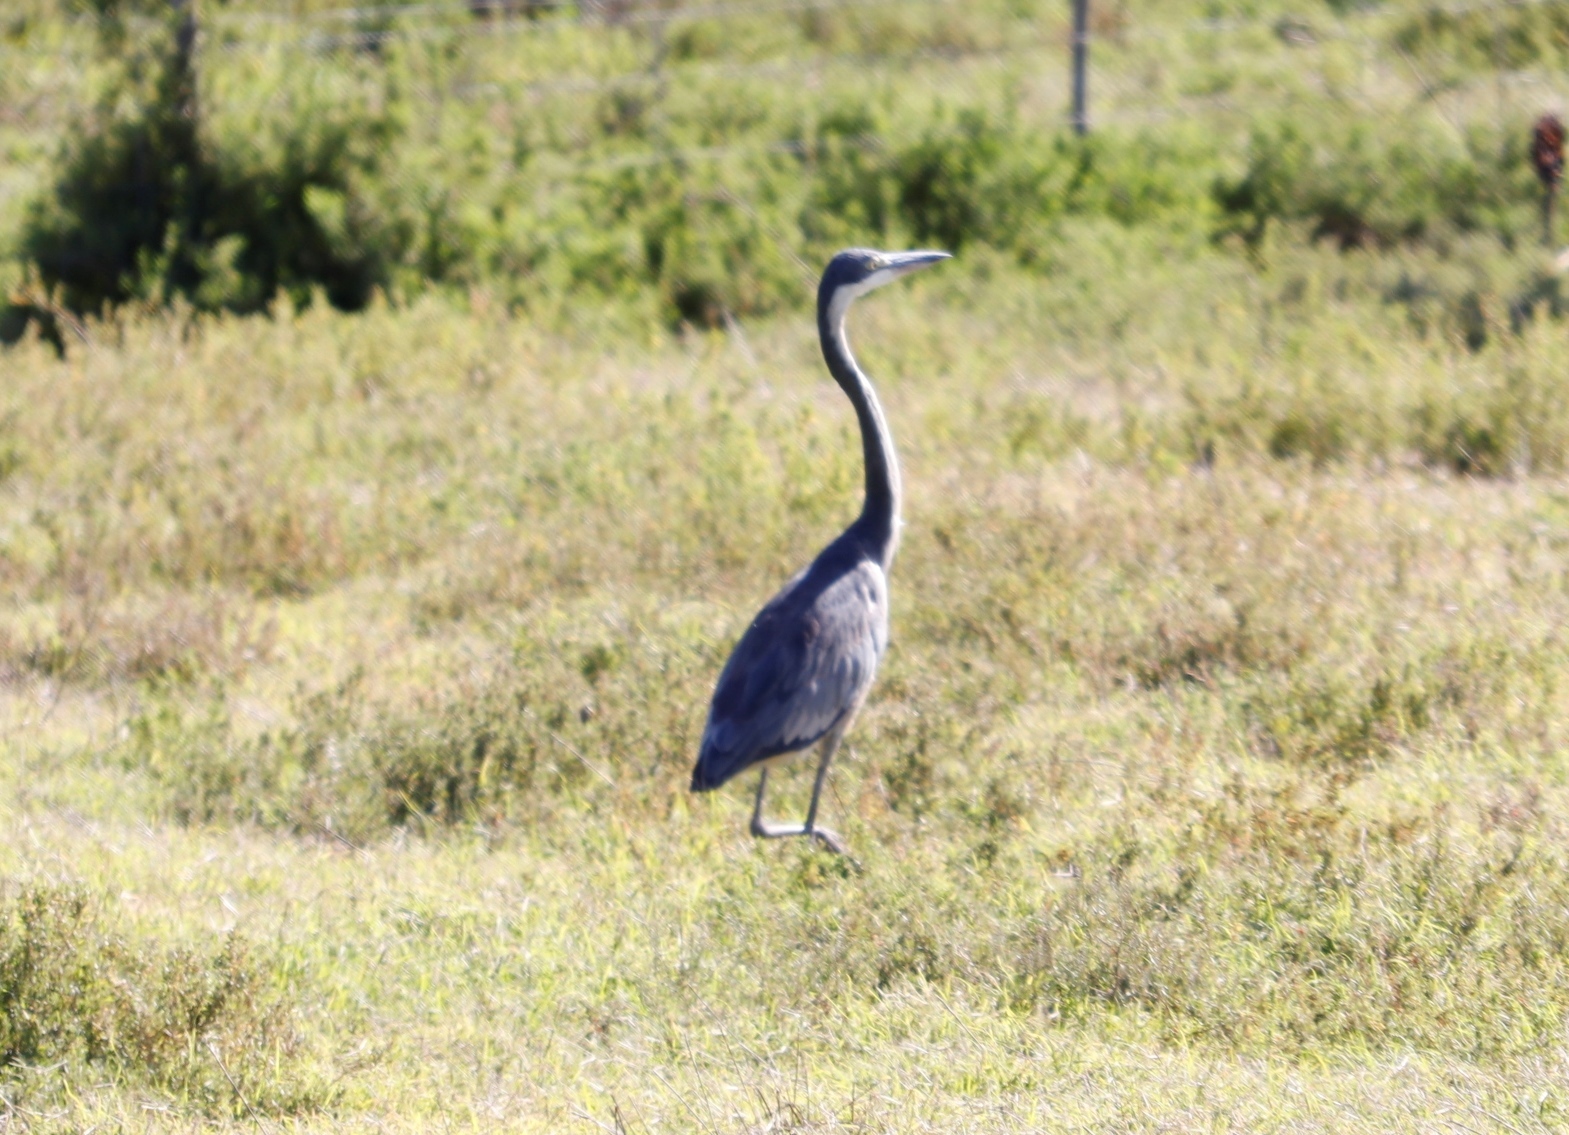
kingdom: Animalia
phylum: Chordata
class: Aves
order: Pelecaniformes
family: Ardeidae
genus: Ardea
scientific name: Ardea melanocephala
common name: Black-headed heron
